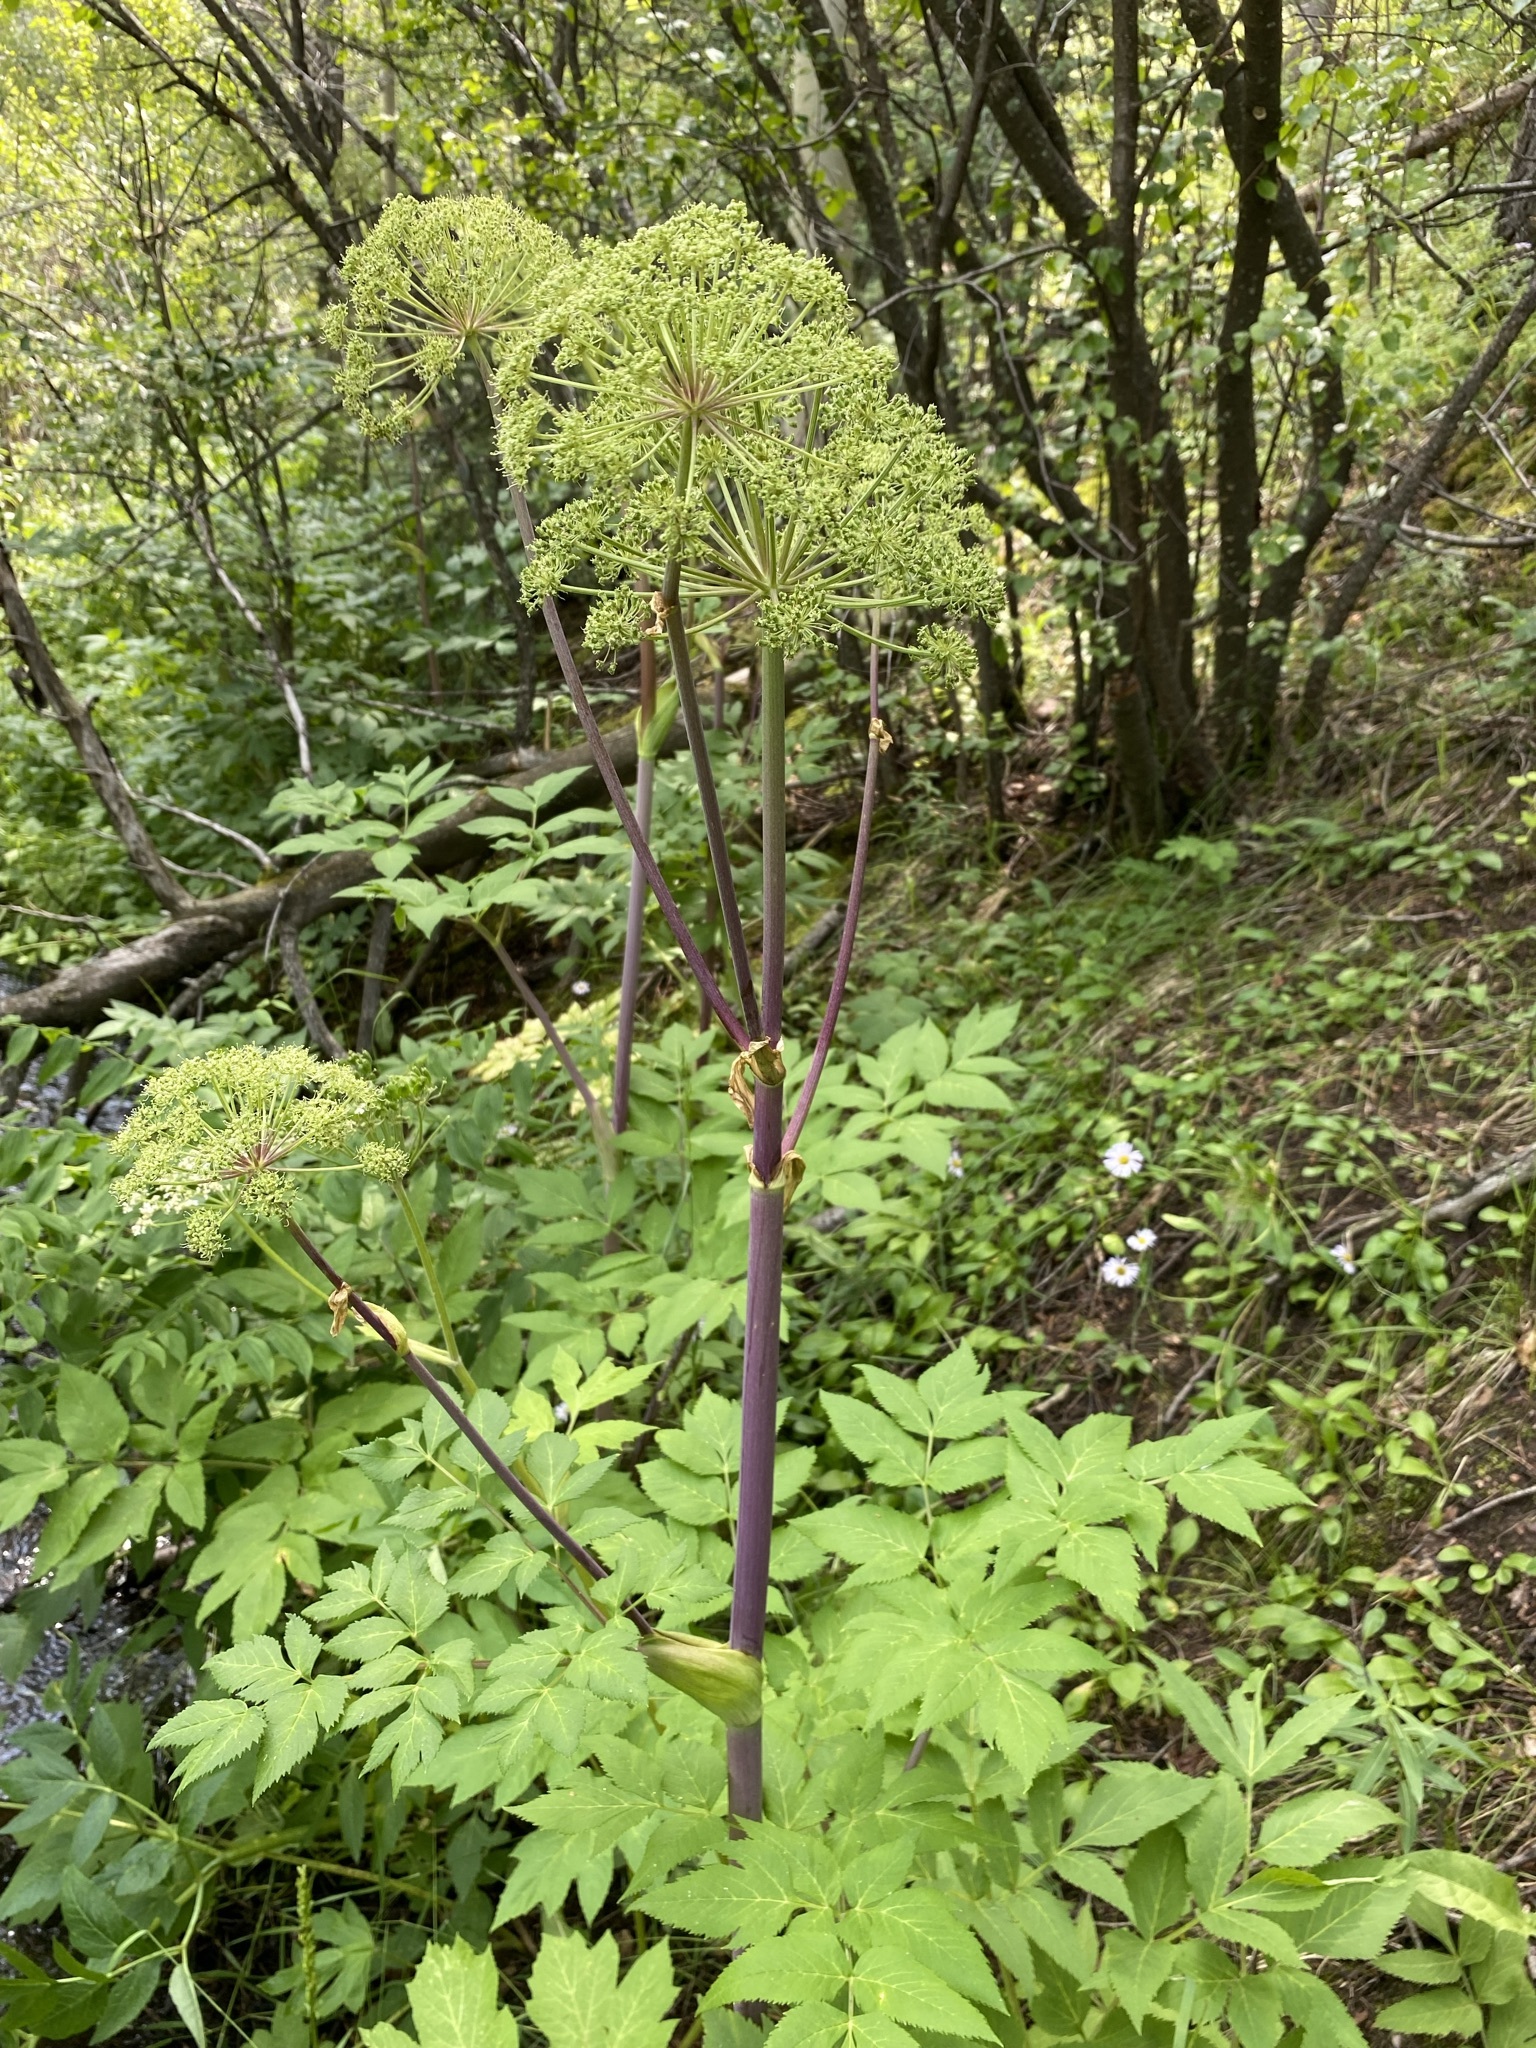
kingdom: Plantae
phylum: Tracheophyta
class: Magnoliopsida
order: Apiales
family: Apiaceae
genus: Angelica
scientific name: Angelica ampla
